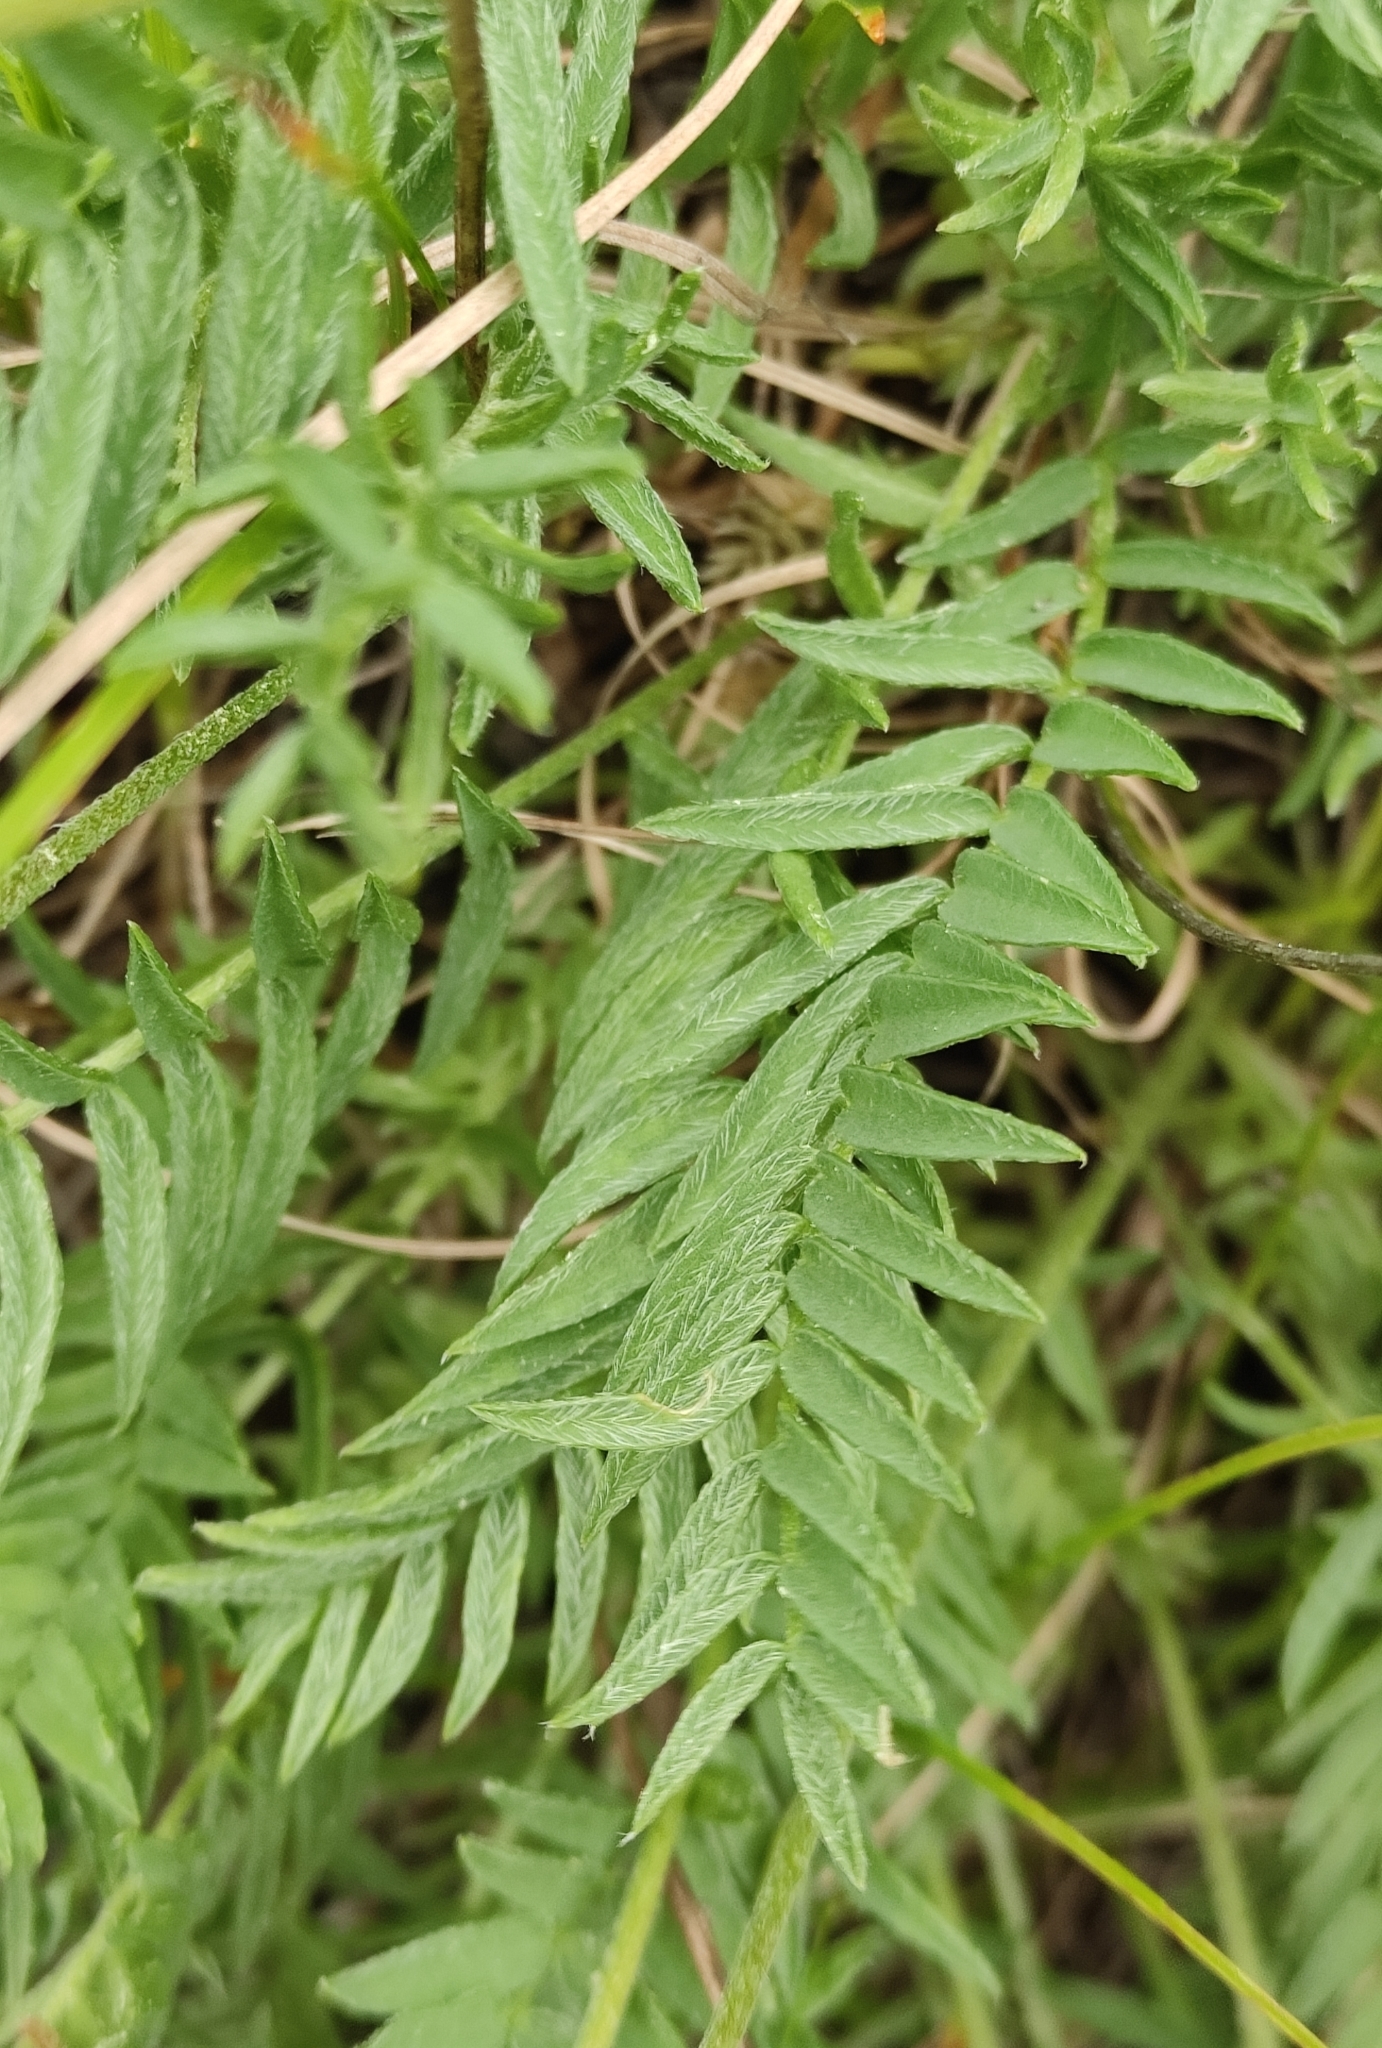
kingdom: Plantae
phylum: Tracheophyta
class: Magnoliopsida
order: Fabales
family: Fabaceae
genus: Oxytropis
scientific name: Oxytropis coerulea
